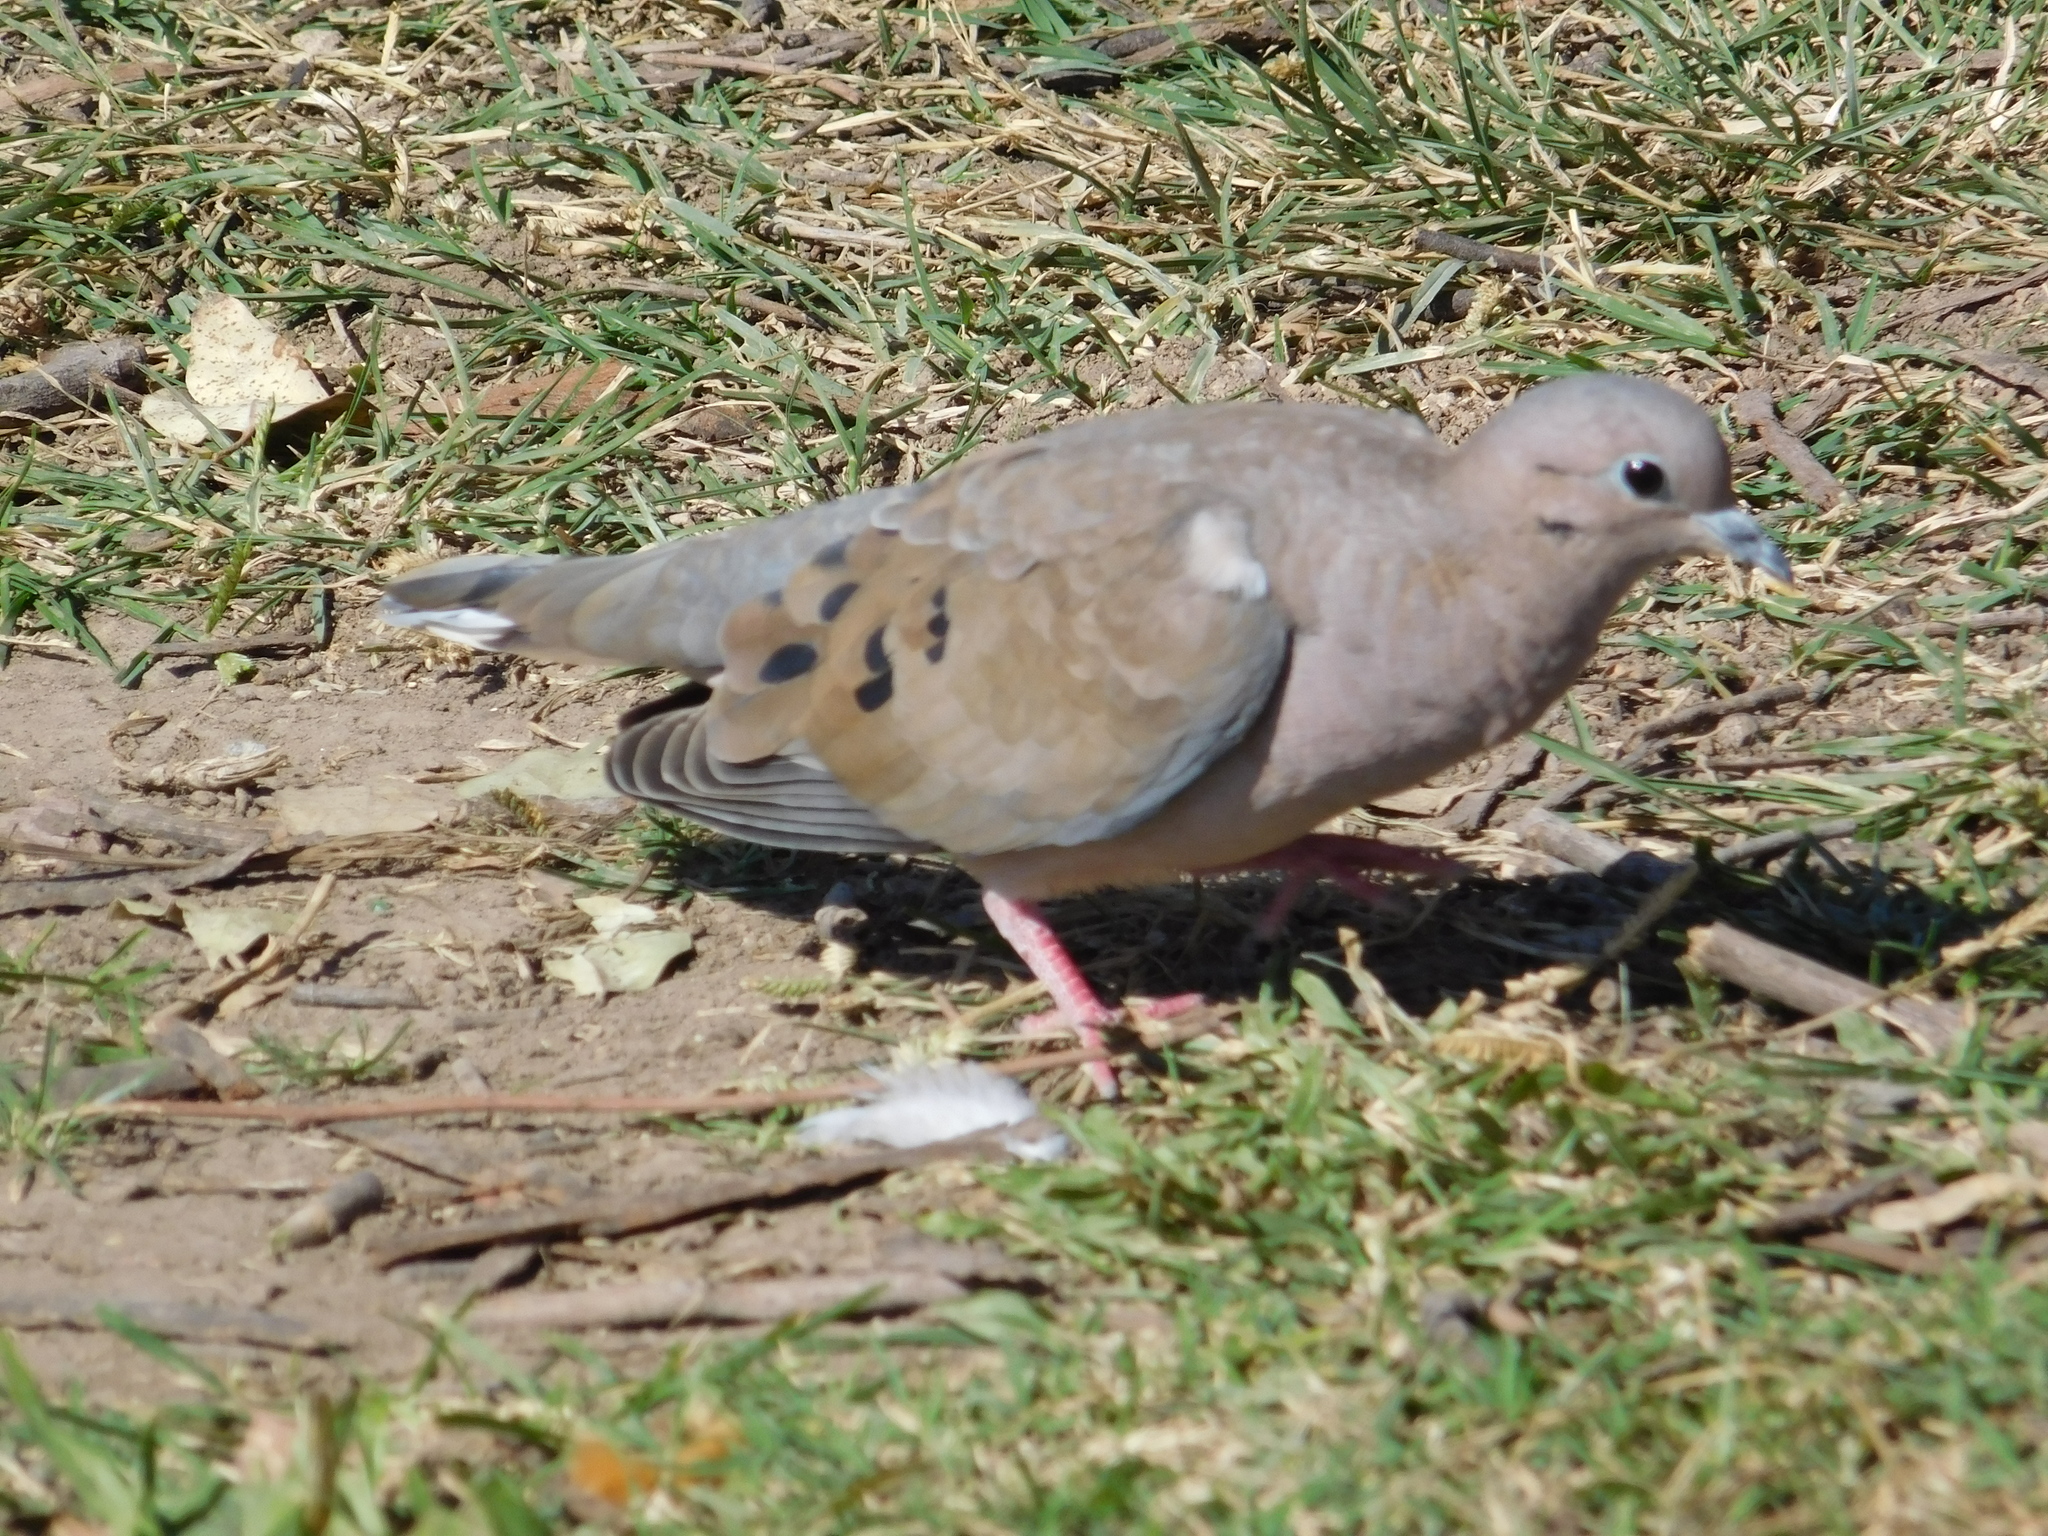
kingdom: Animalia
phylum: Chordata
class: Aves
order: Columbiformes
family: Columbidae
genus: Zenaida
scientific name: Zenaida auriculata
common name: Eared dove
